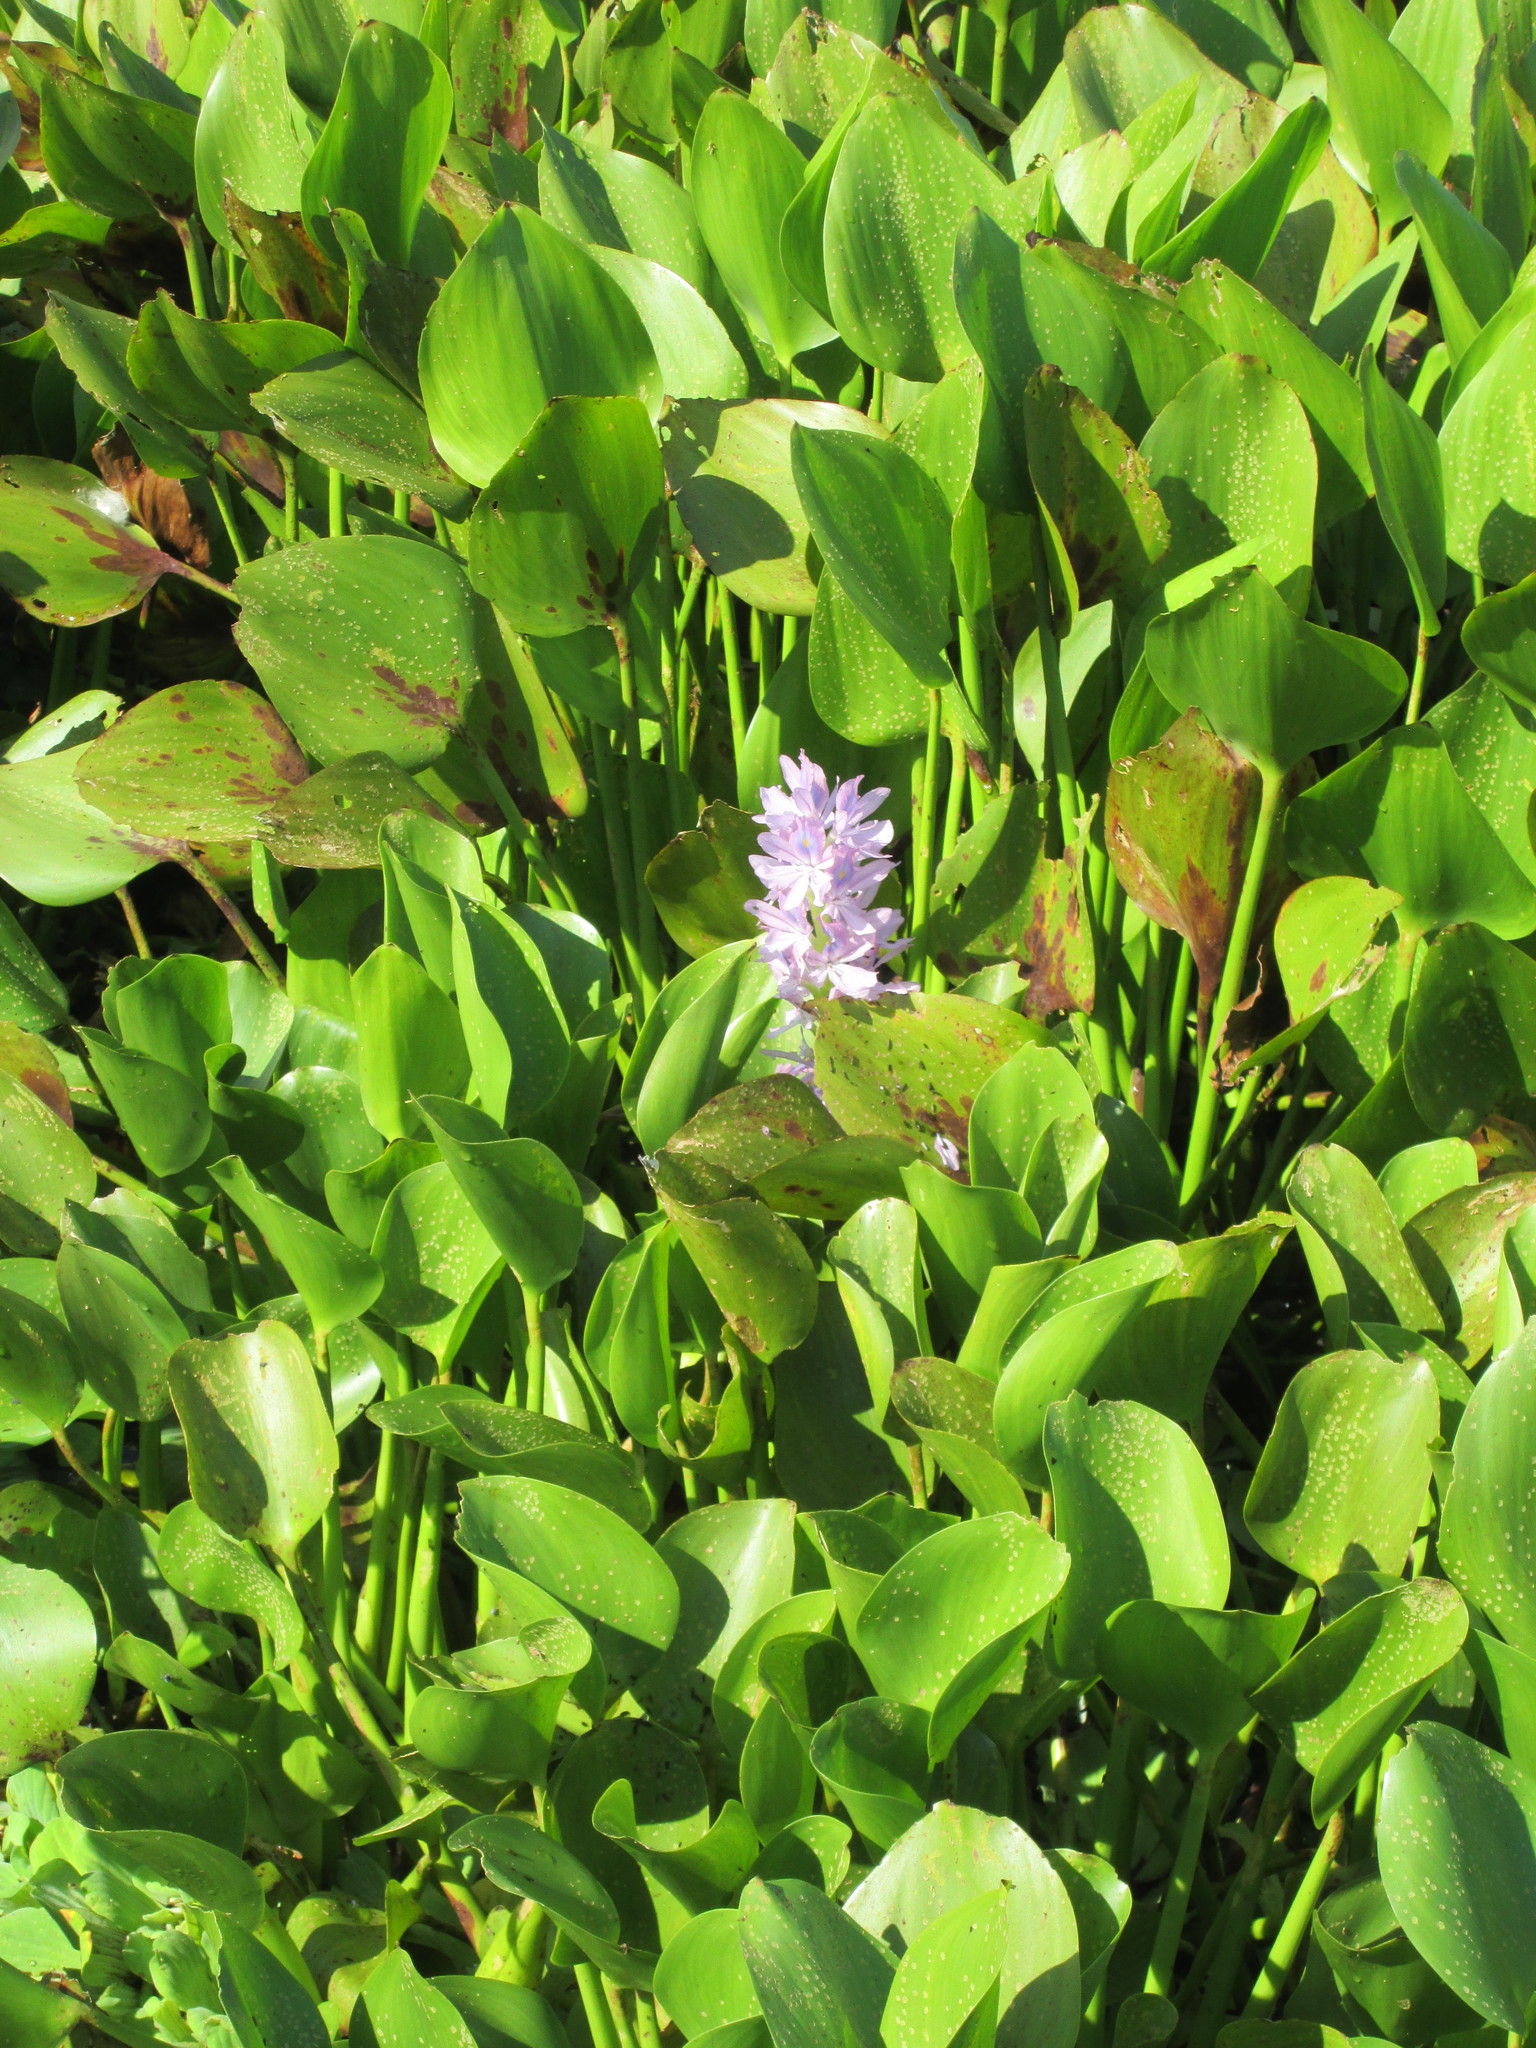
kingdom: Plantae
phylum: Tracheophyta
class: Liliopsida
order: Commelinales
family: Pontederiaceae
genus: Pontederia
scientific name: Pontederia crassipes
